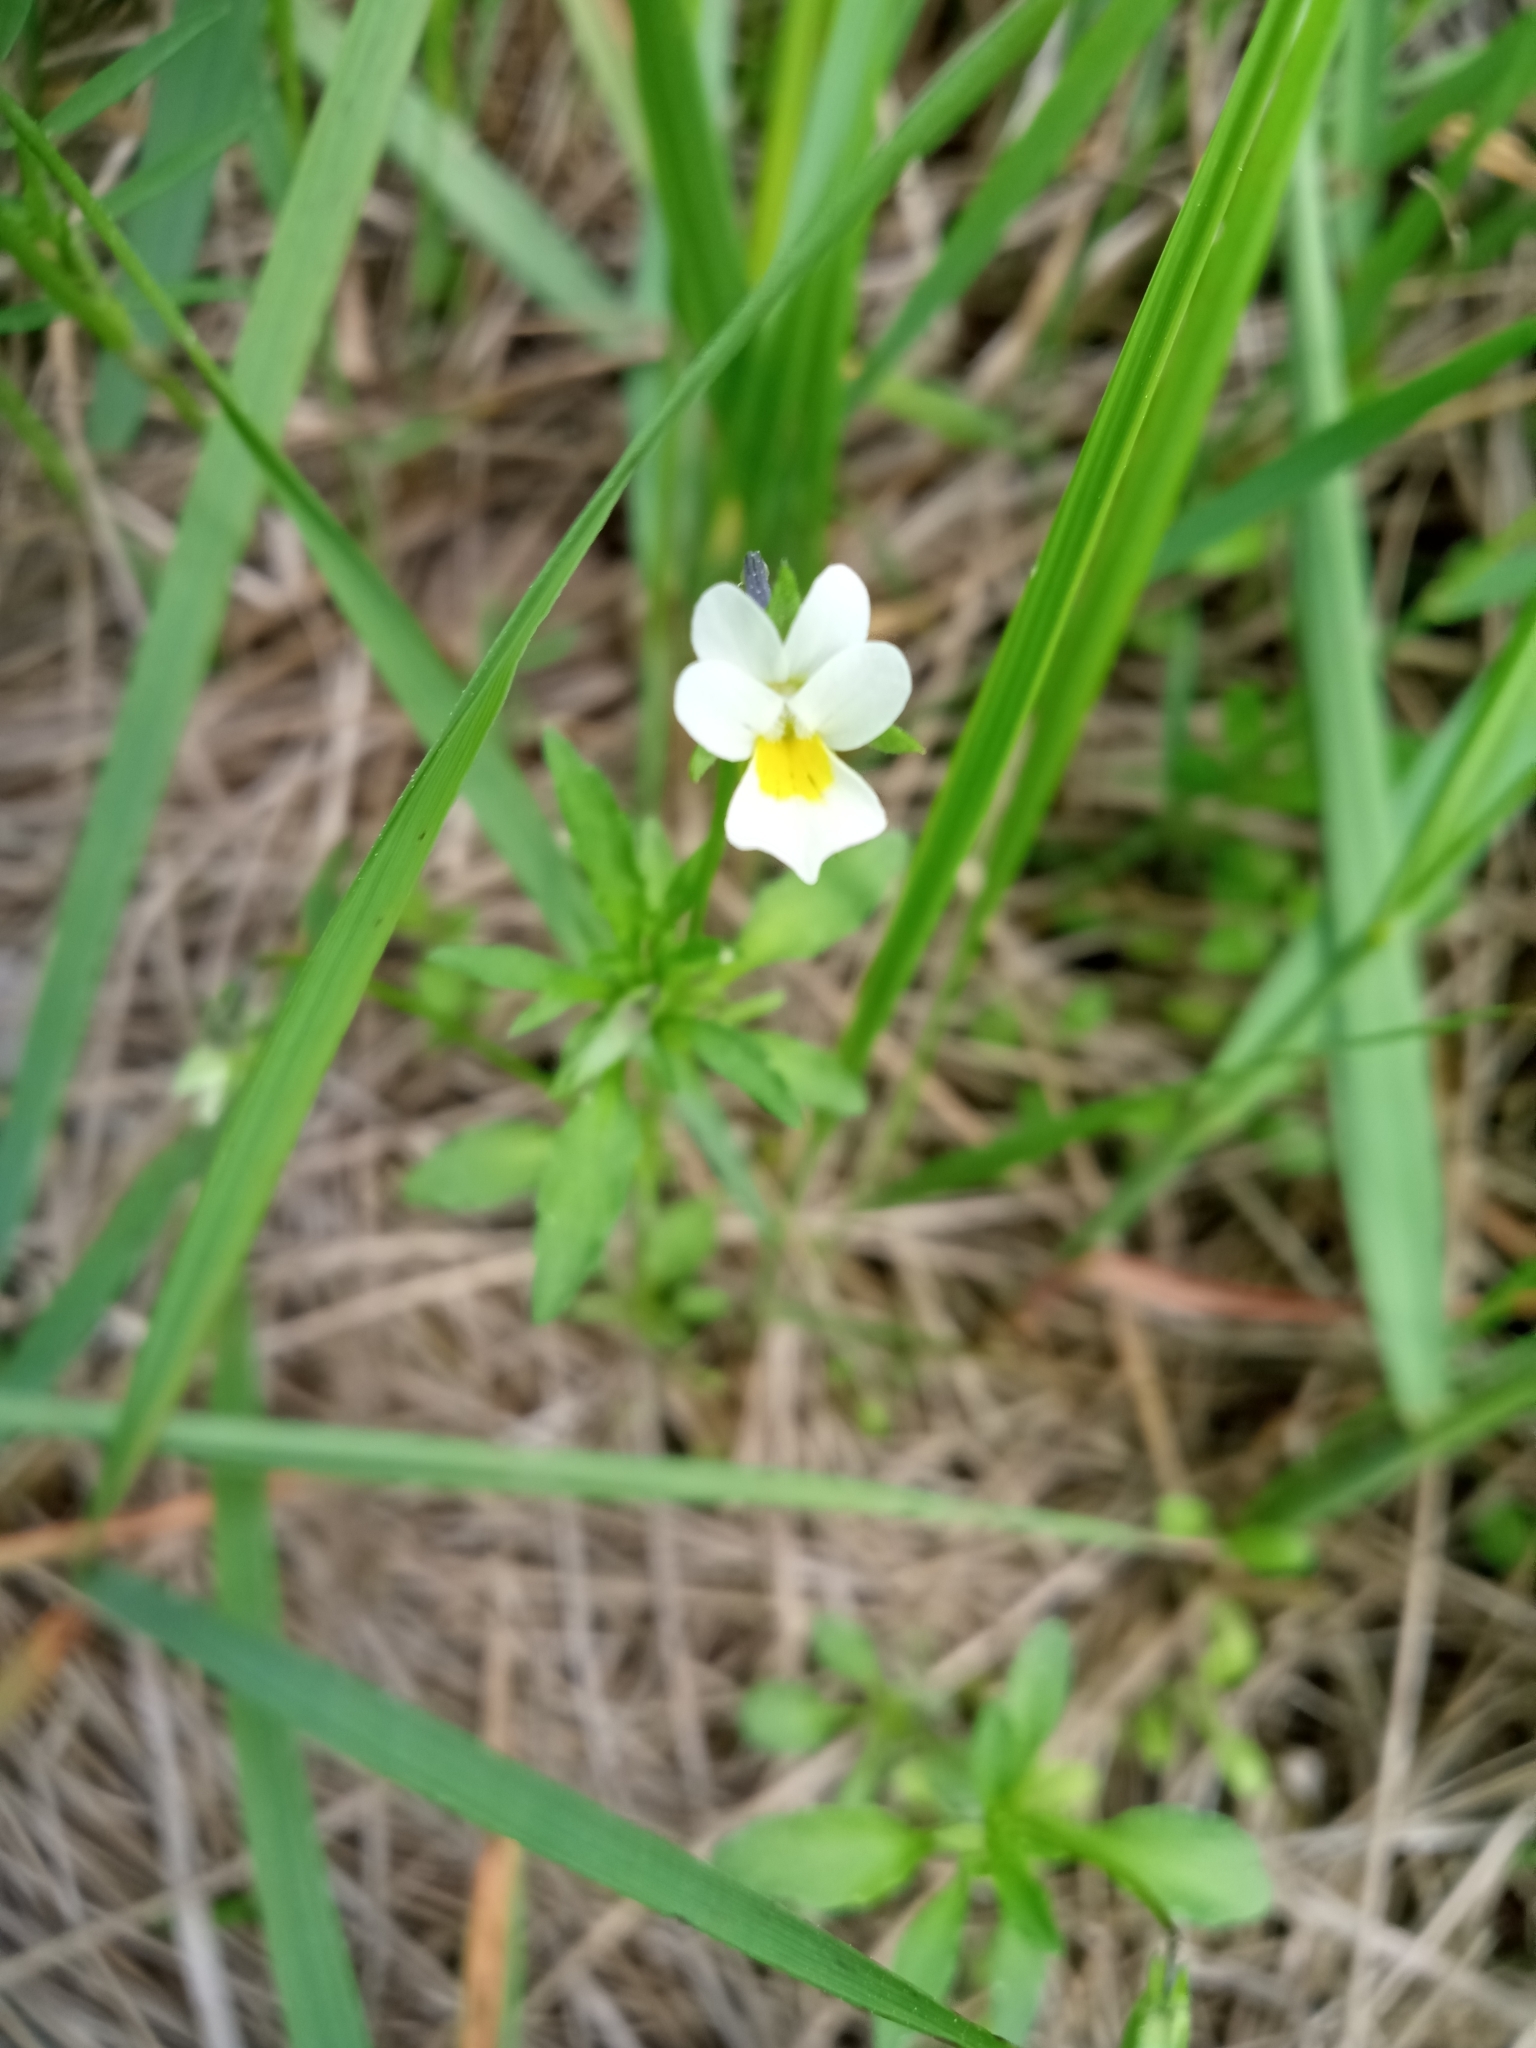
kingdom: Plantae
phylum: Tracheophyta
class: Magnoliopsida
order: Malpighiales
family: Violaceae
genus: Viola
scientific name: Viola arvensis
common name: Field pansy
